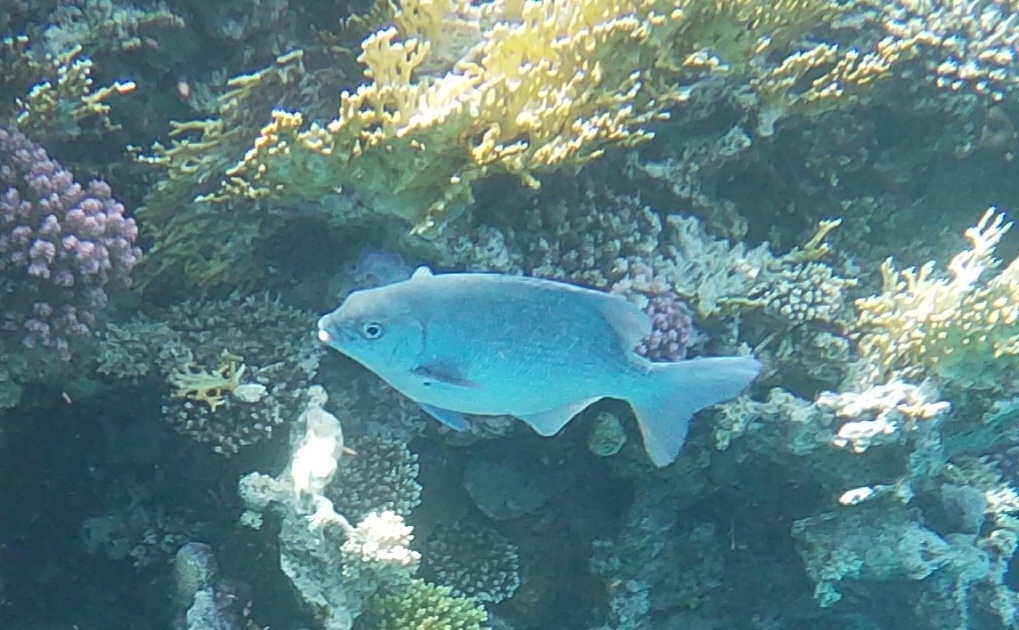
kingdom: Animalia
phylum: Chordata
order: Perciformes
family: Kyphosidae
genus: Kyphosus
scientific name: Kyphosus cinerascens
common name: Topsail drummer
